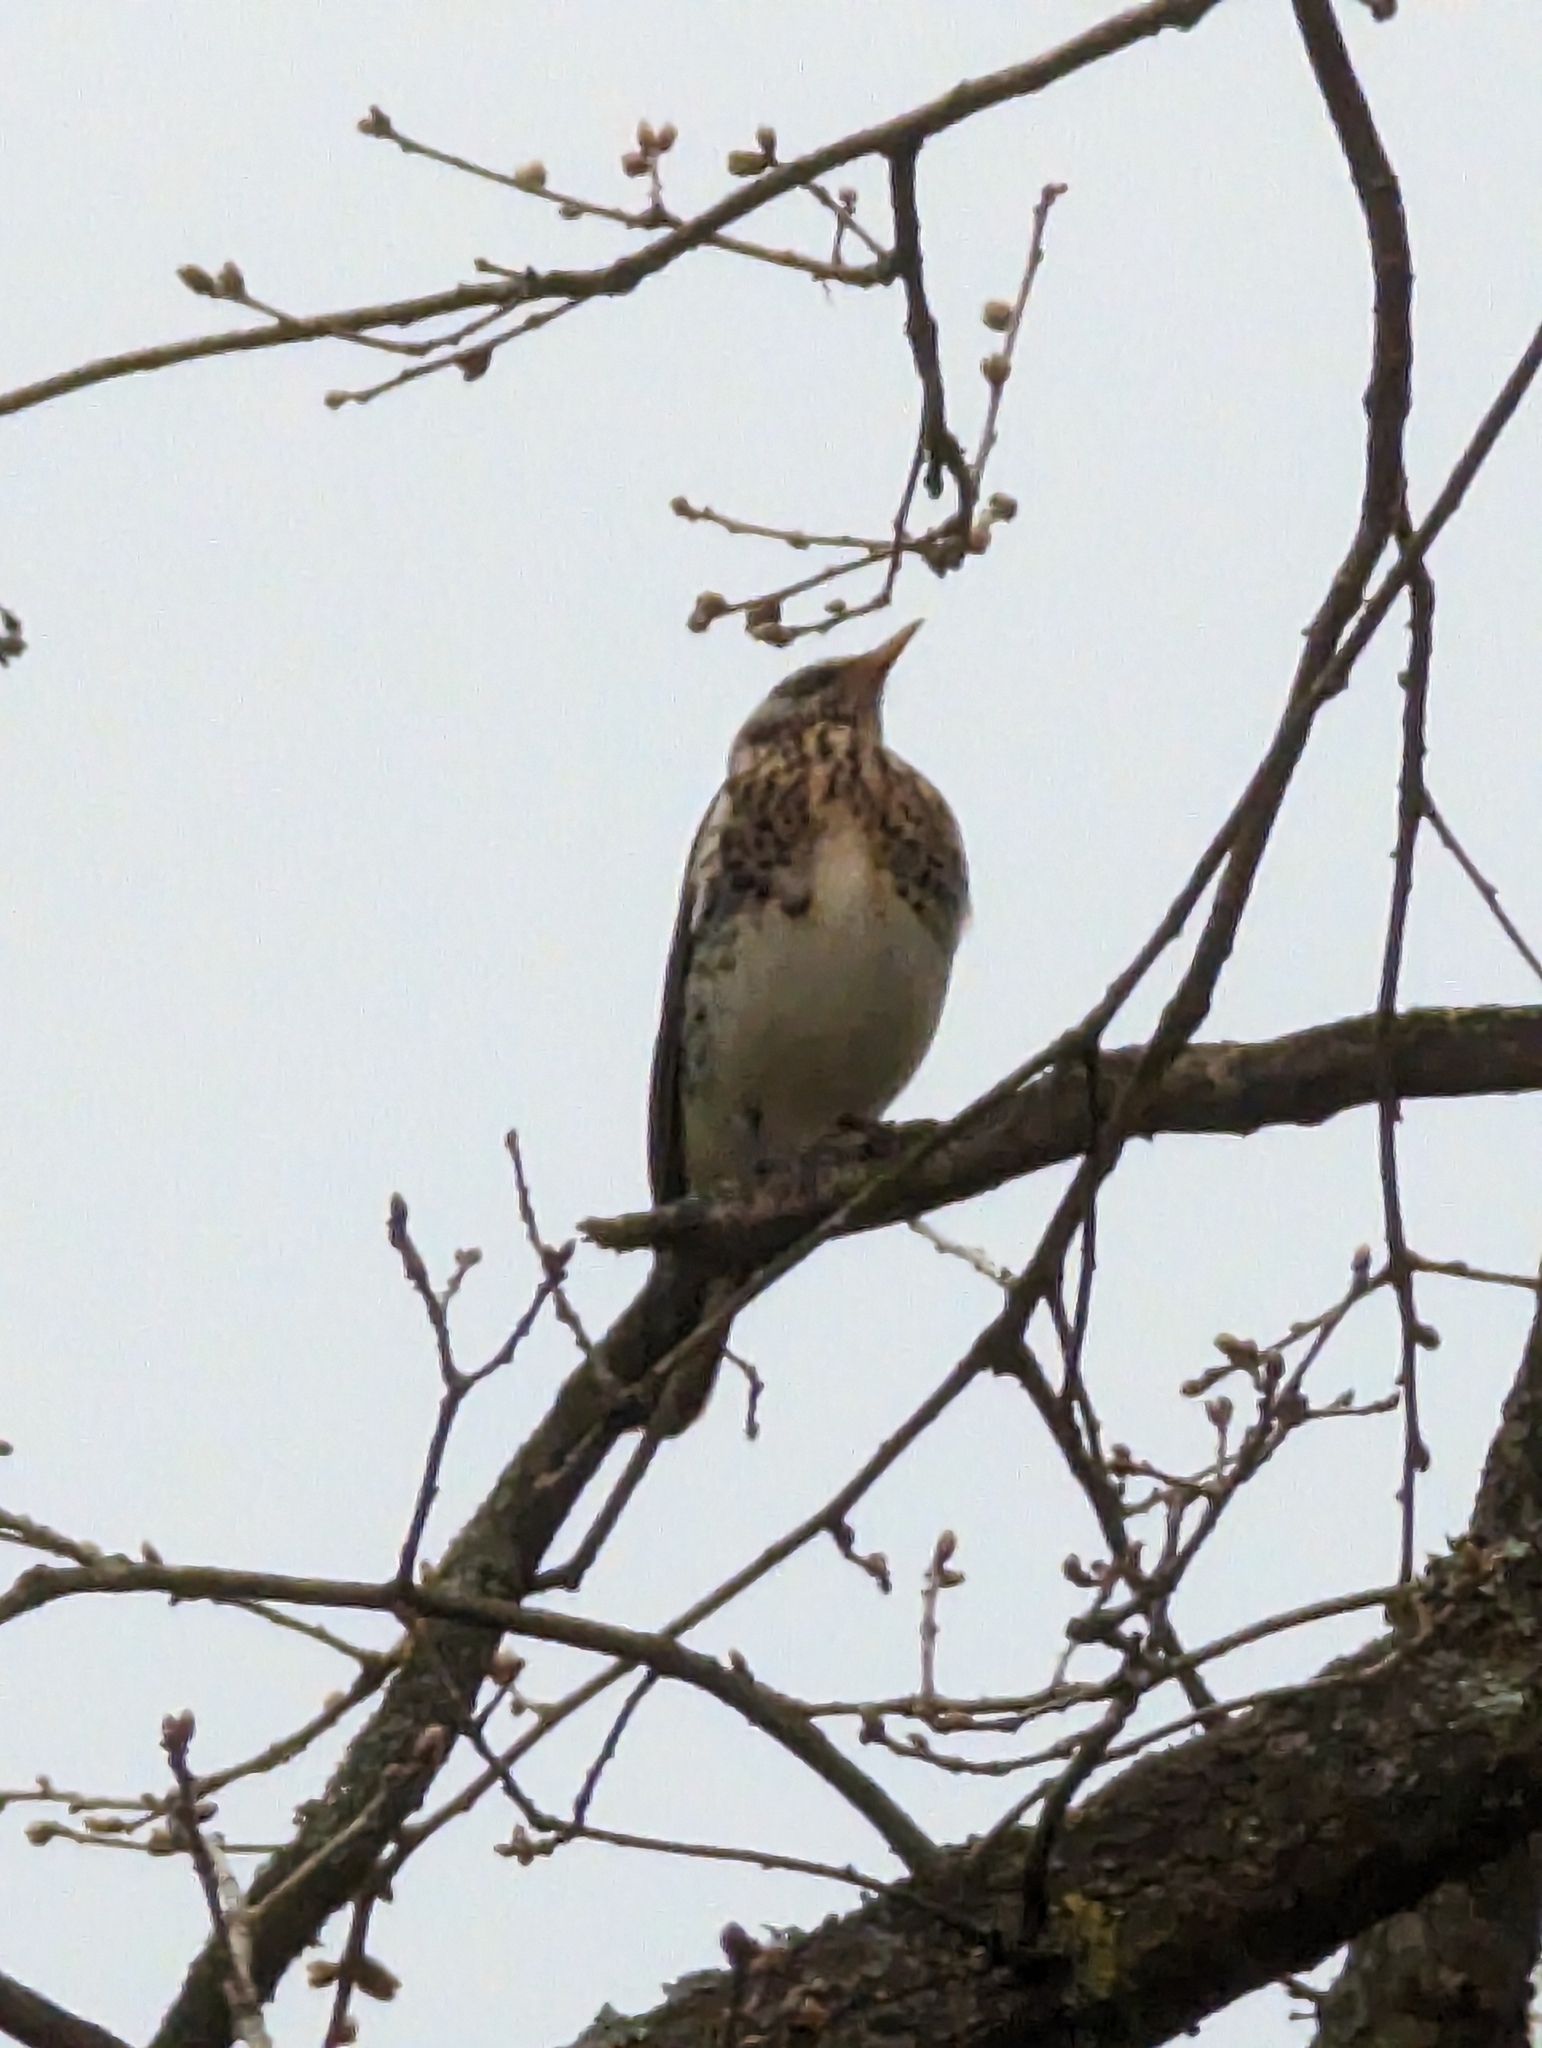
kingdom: Animalia
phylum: Chordata
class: Aves
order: Passeriformes
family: Turdidae
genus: Turdus
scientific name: Turdus pilaris
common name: Fieldfare
